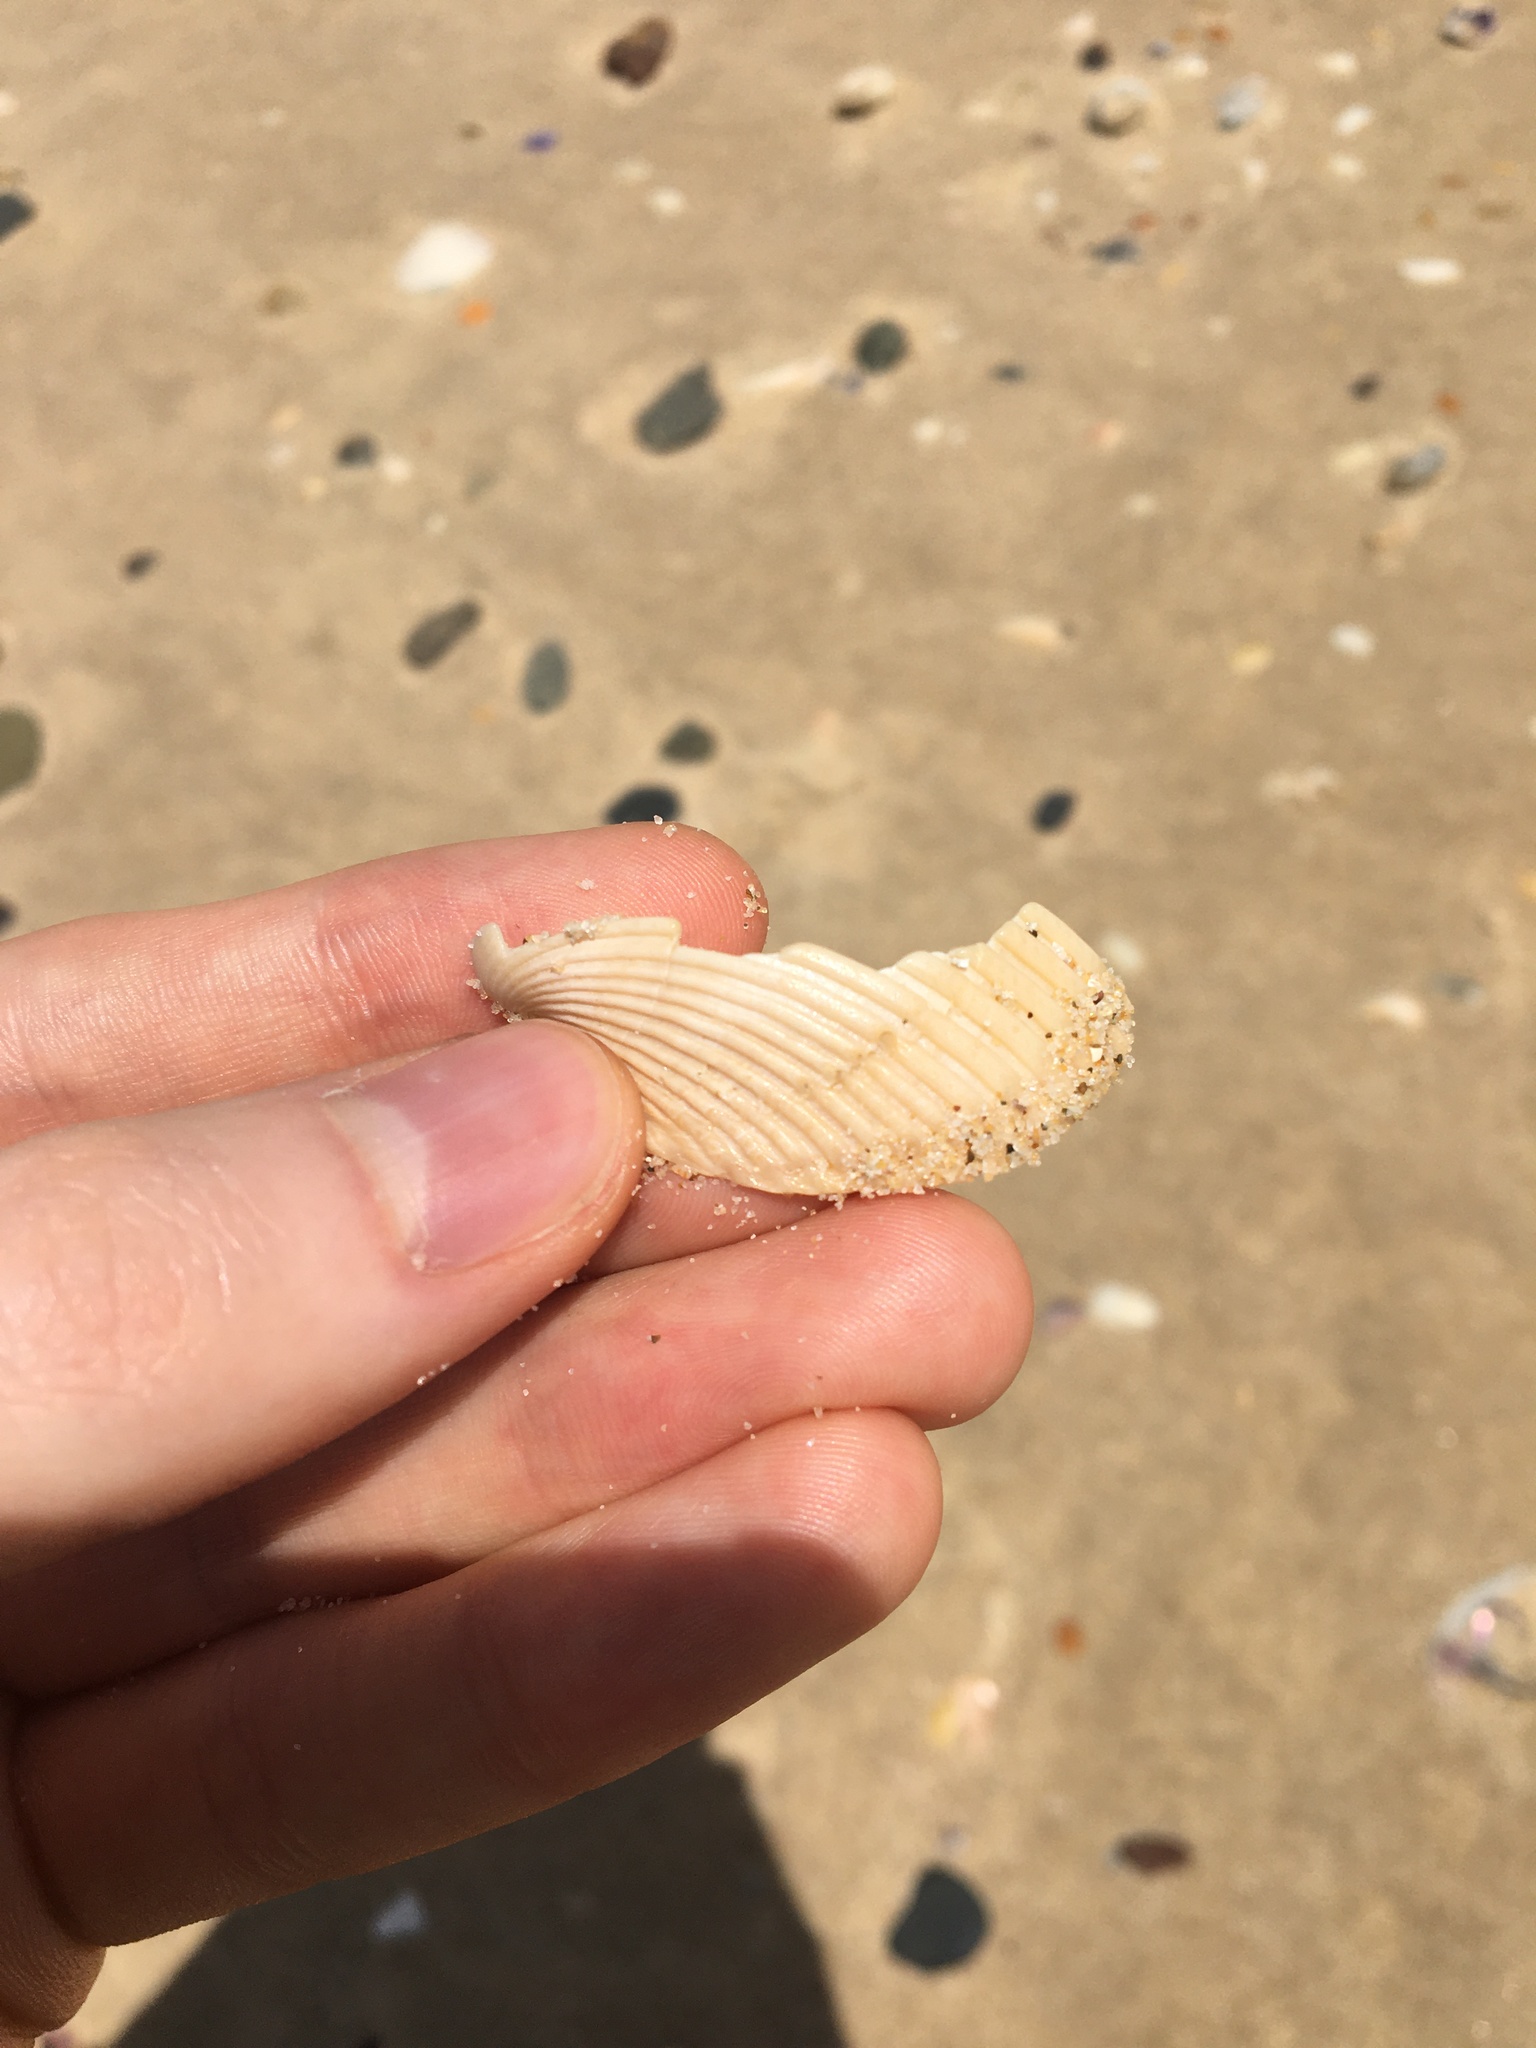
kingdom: Animalia
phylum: Mollusca
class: Bivalvia
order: Cardiida
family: Cardiidae
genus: Vepricardium
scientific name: Vepricardium multispinosum
